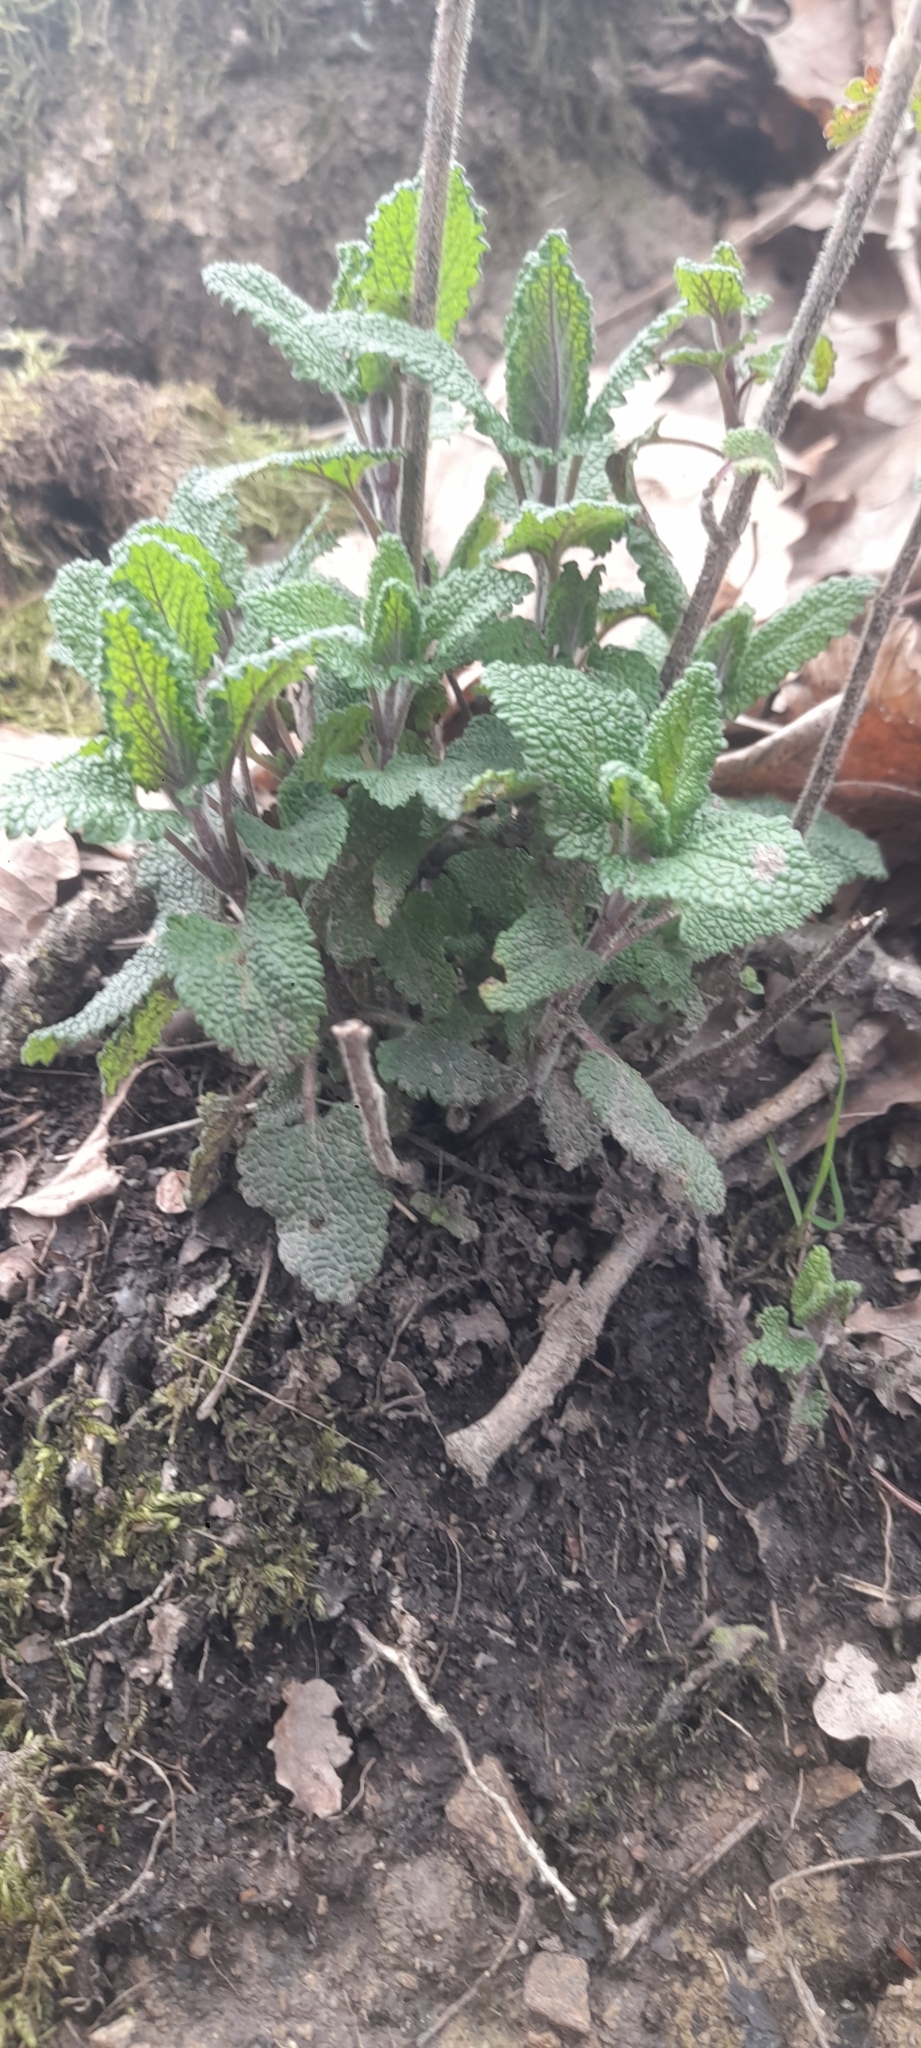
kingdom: Plantae
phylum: Tracheophyta
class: Magnoliopsida
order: Lamiales
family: Lamiaceae
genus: Teucrium
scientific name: Teucrium scorodonia
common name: Woodland germander
